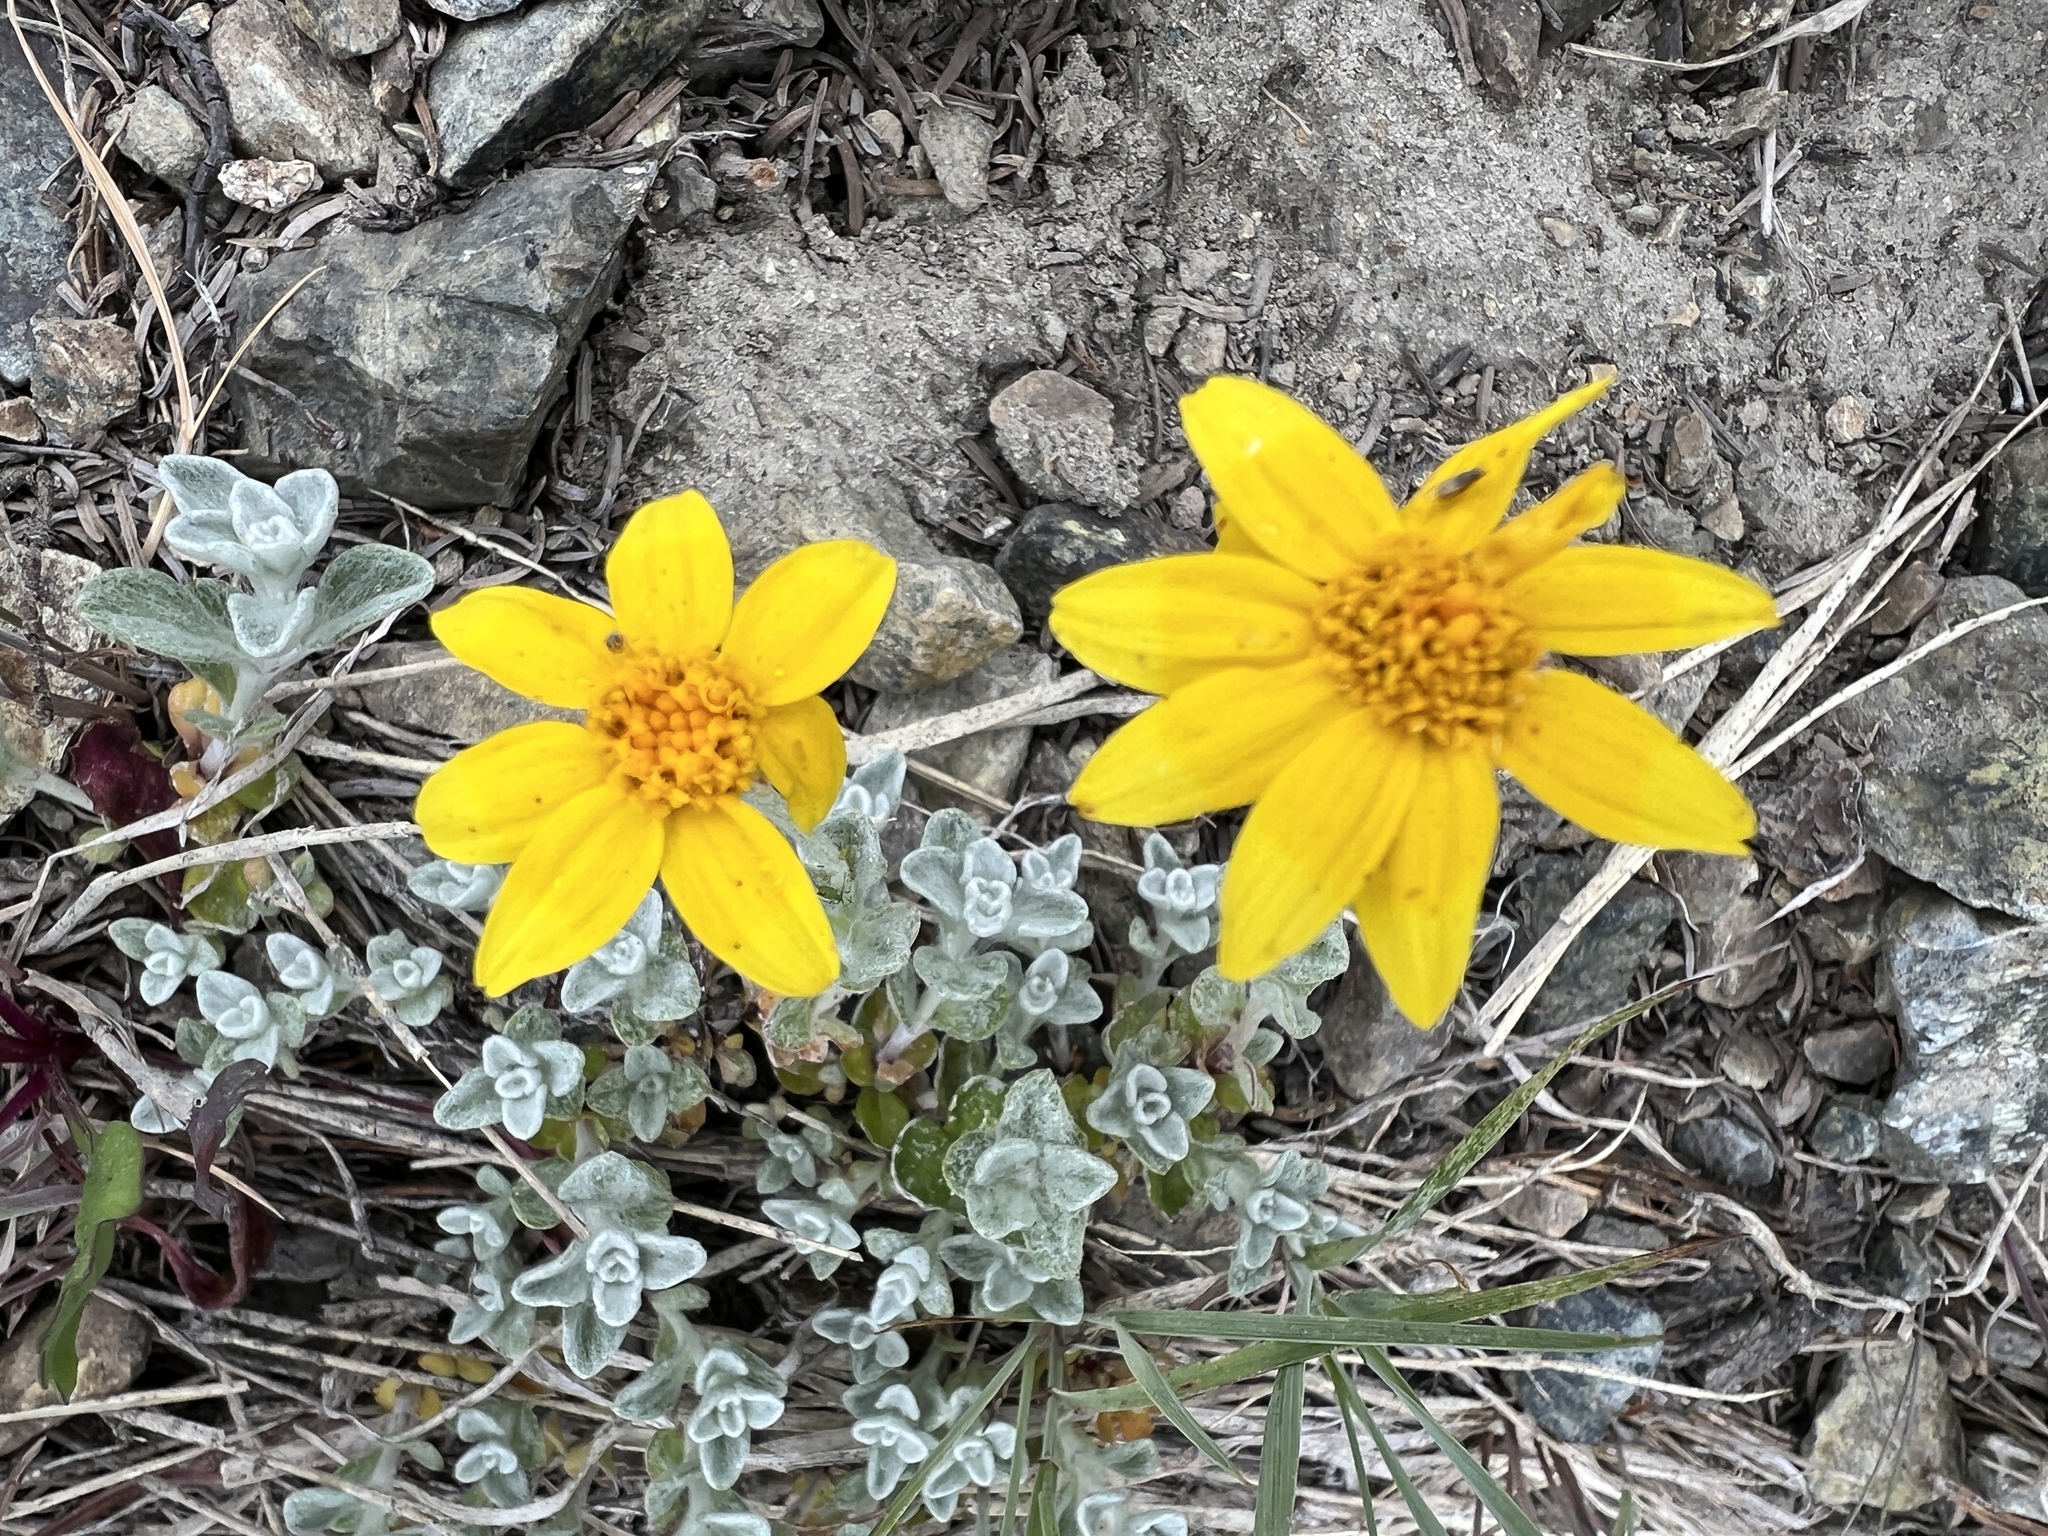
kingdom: Plantae
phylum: Tracheophyta
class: Magnoliopsida
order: Asterales
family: Asteraceae
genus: Eriophyllum
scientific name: Eriophyllum lanatum
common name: Common woolly-sunflower
